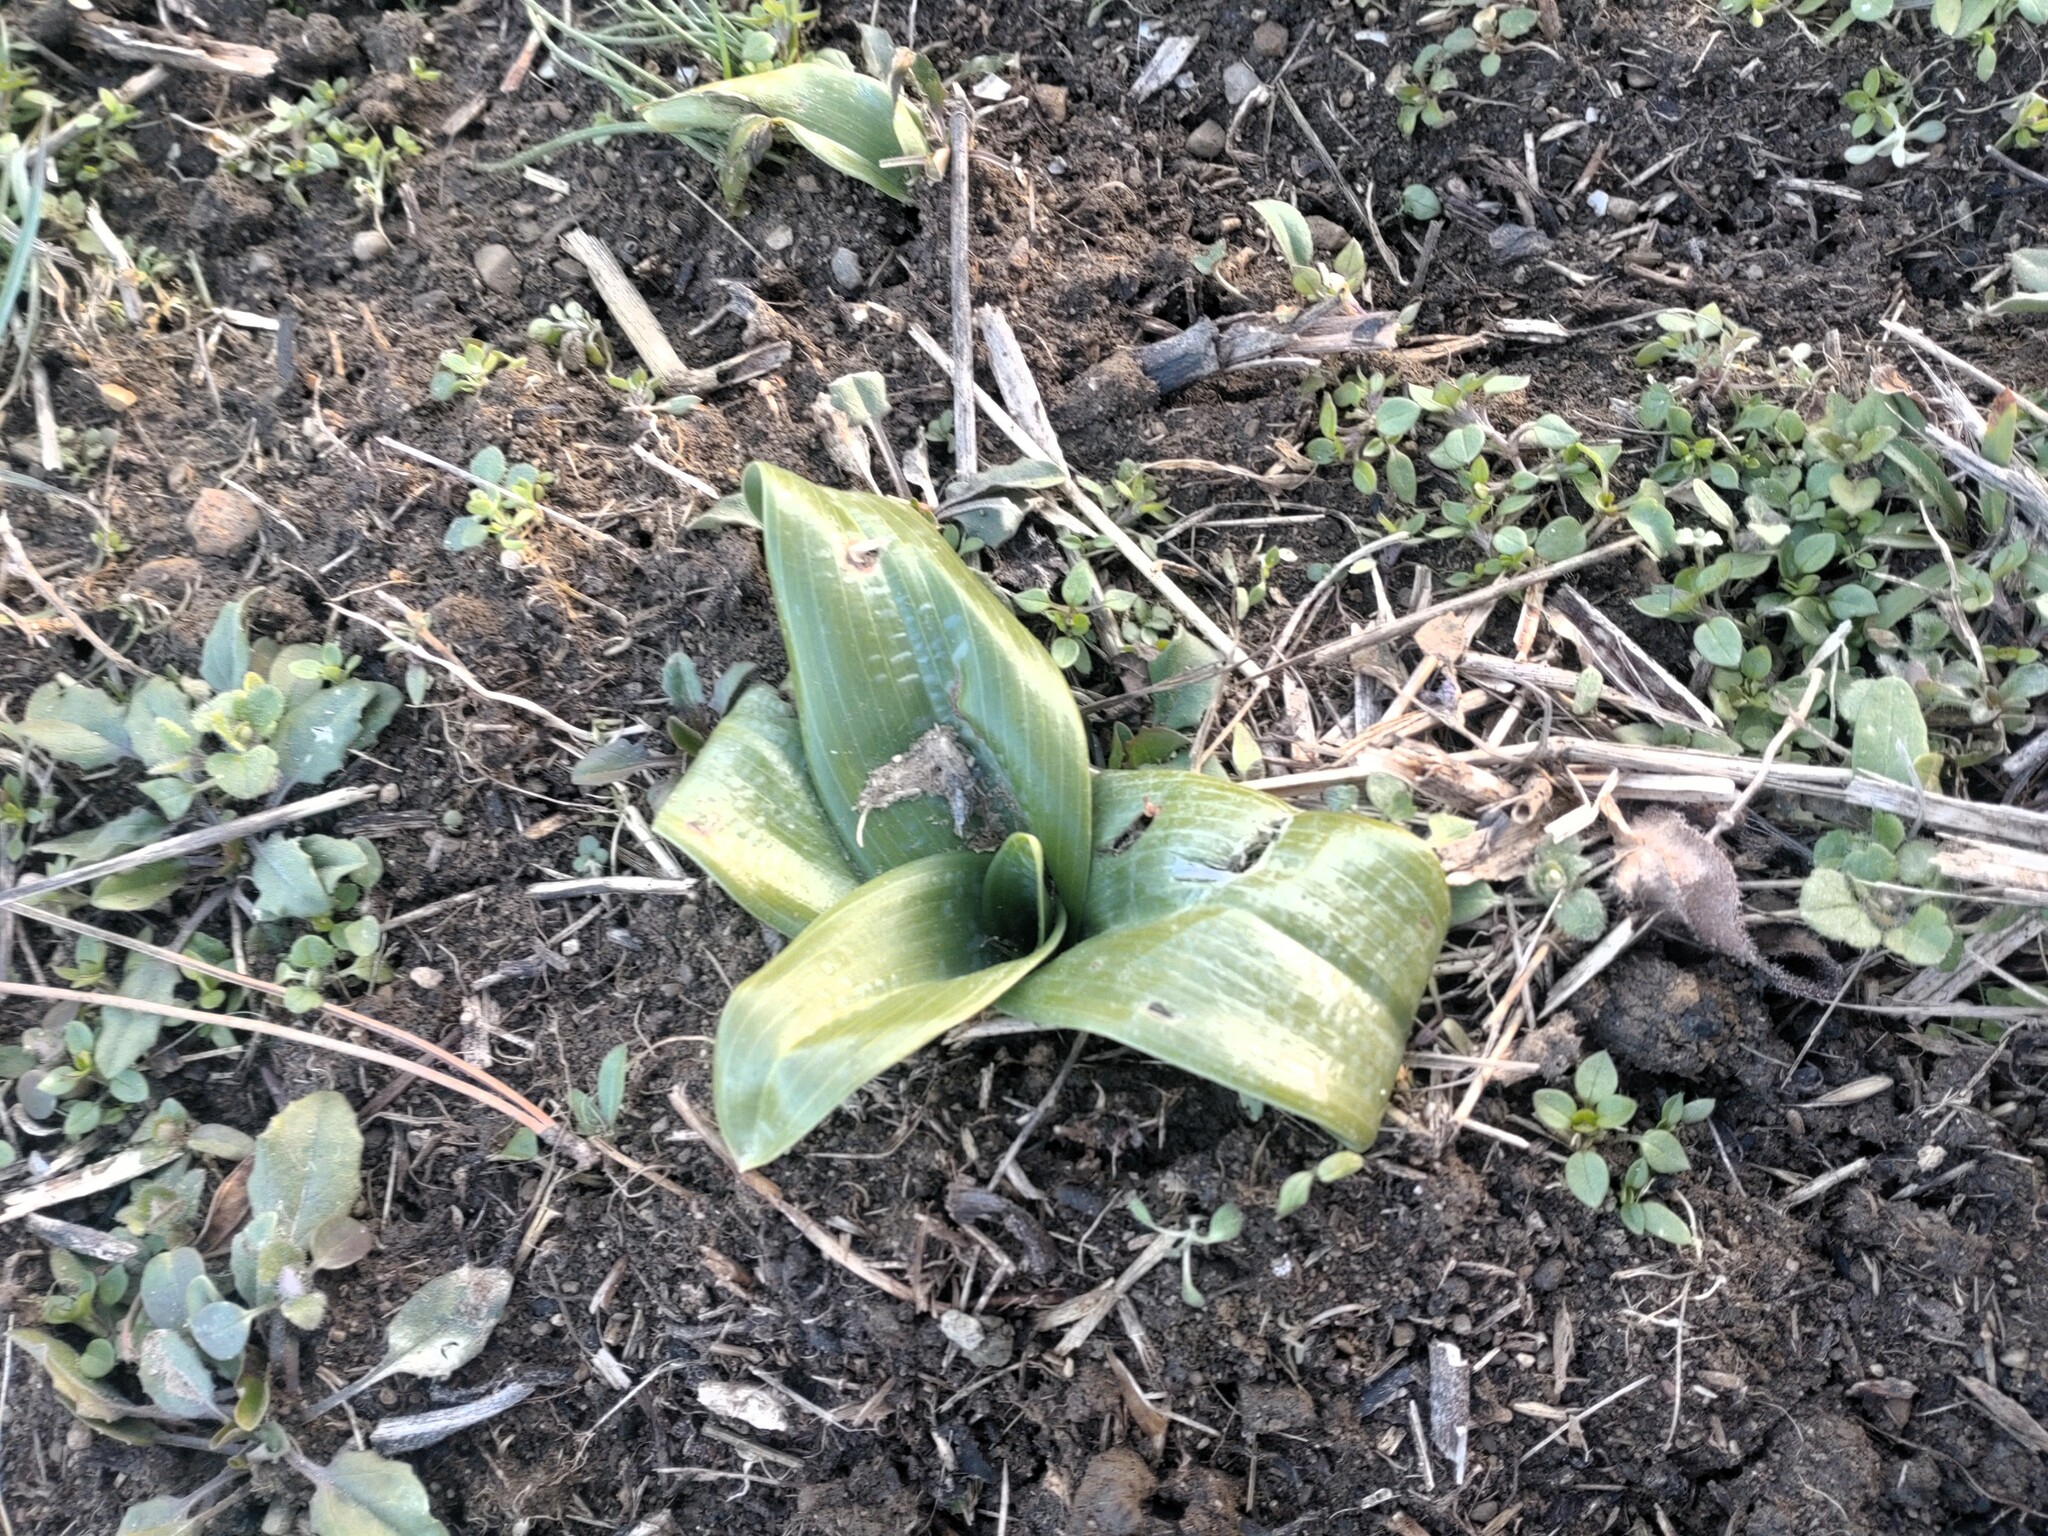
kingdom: Plantae
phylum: Tracheophyta
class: Liliopsida
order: Asparagales
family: Orchidaceae
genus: Himantoglossum
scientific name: Himantoglossum adriaticum
